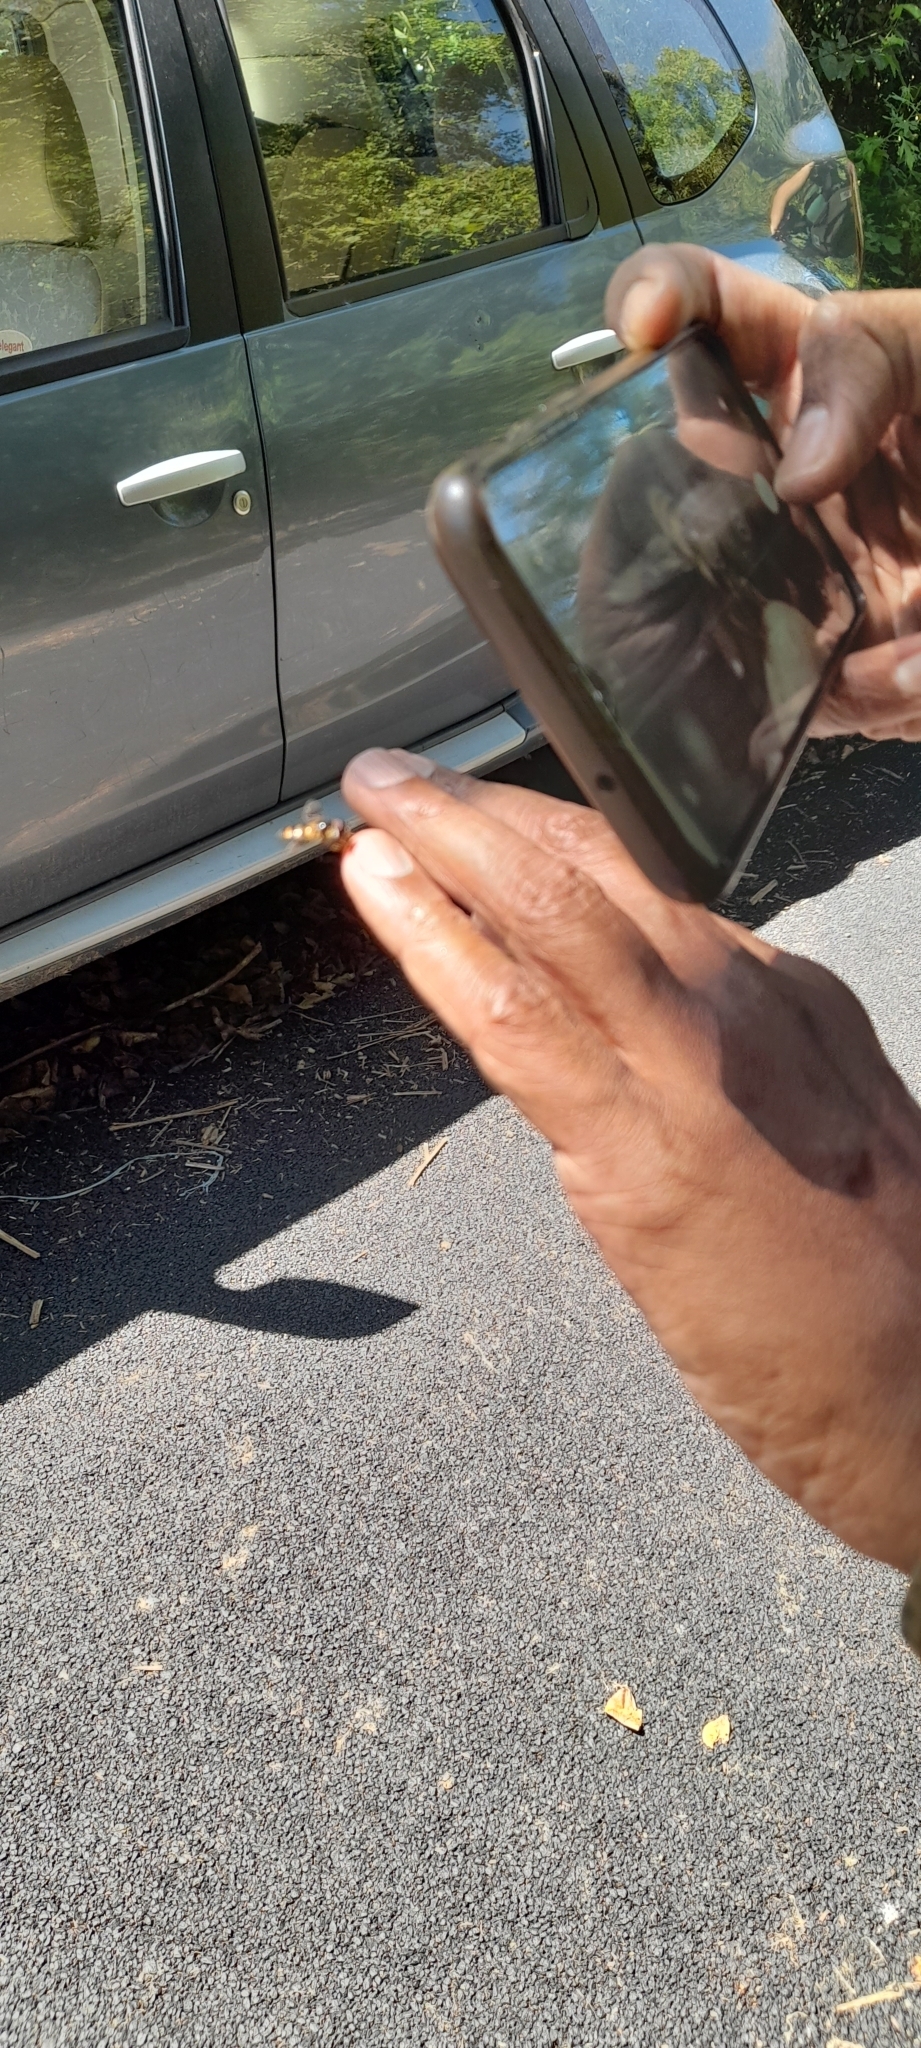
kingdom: Animalia
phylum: Arthropoda
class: Insecta
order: Diptera
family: Syrphidae
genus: Dideopsis
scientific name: Dideopsis aegrota
